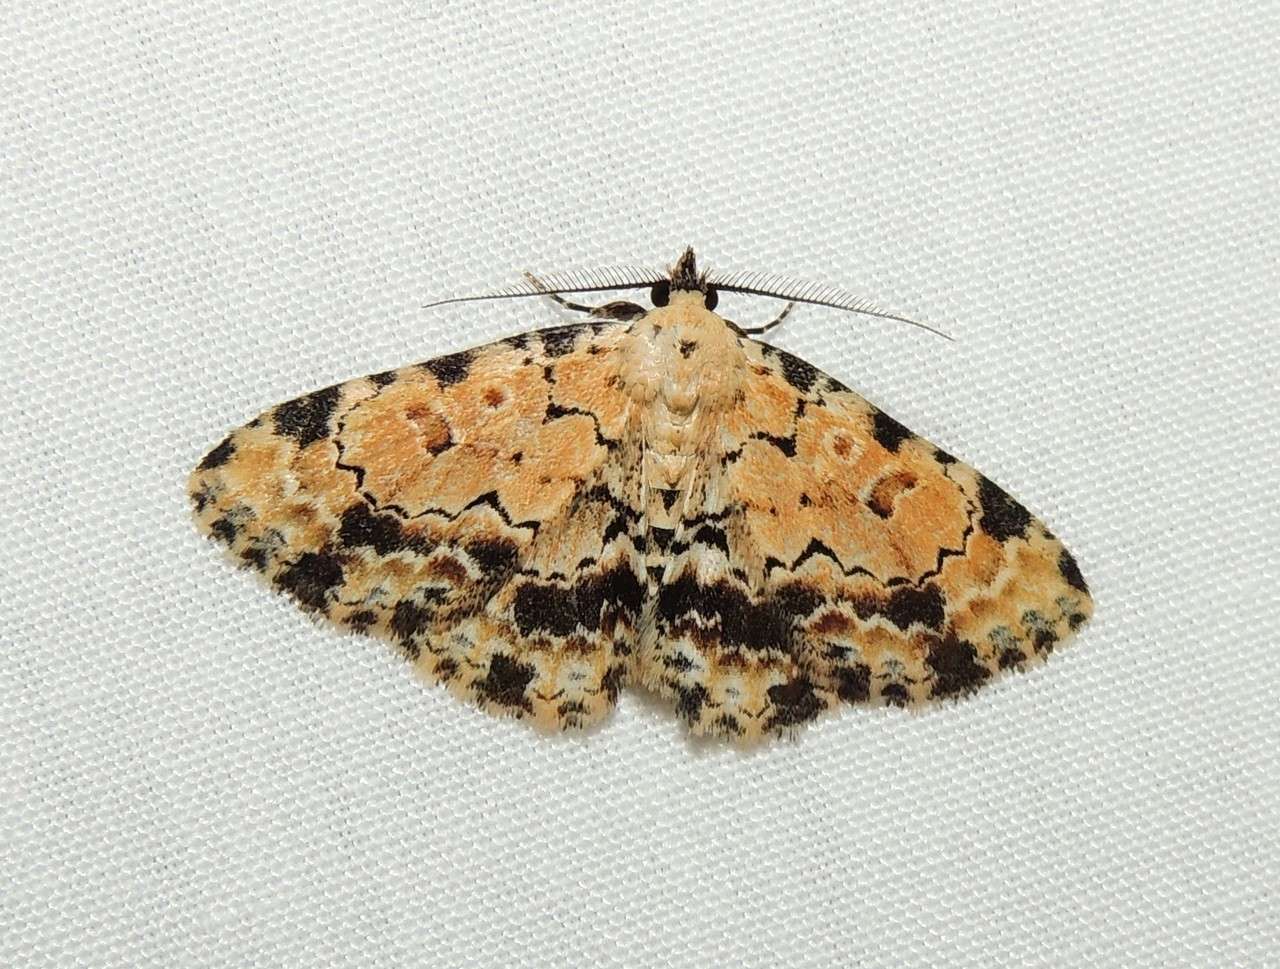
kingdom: Animalia
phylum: Arthropoda
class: Insecta
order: Lepidoptera
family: Erebidae
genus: Sandava
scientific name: Sandava scitisignata
